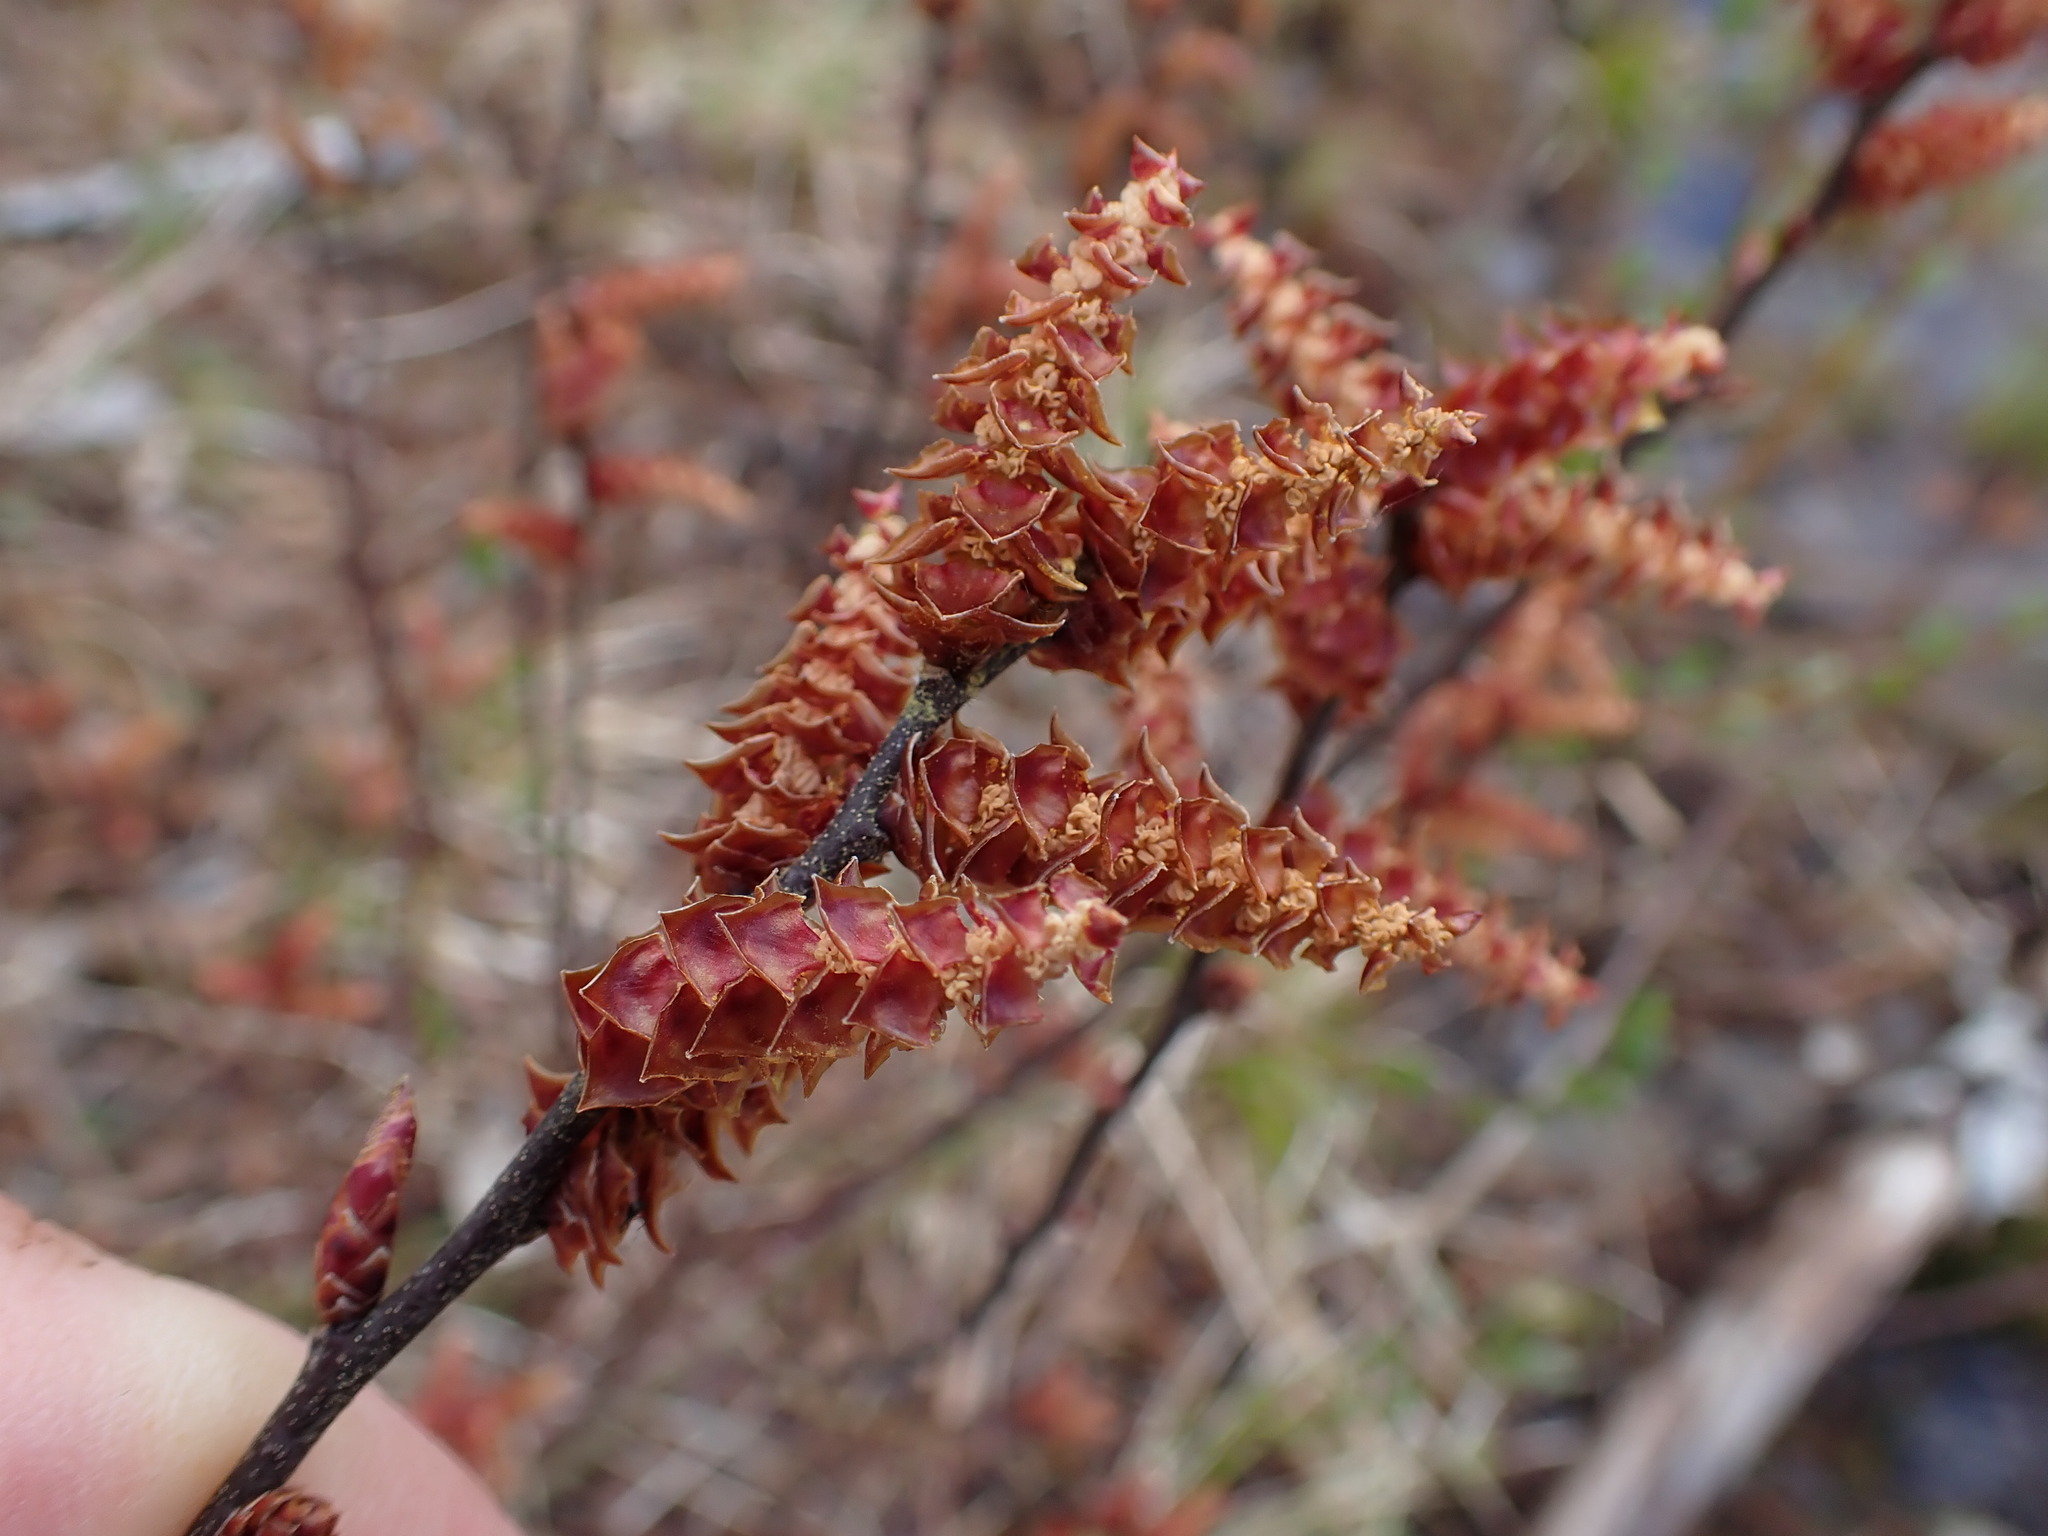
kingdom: Plantae
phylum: Tracheophyta
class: Magnoliopsida
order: Fagales
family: Myricaceae
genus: Myrica
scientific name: Myrica gale
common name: Sweet gale
